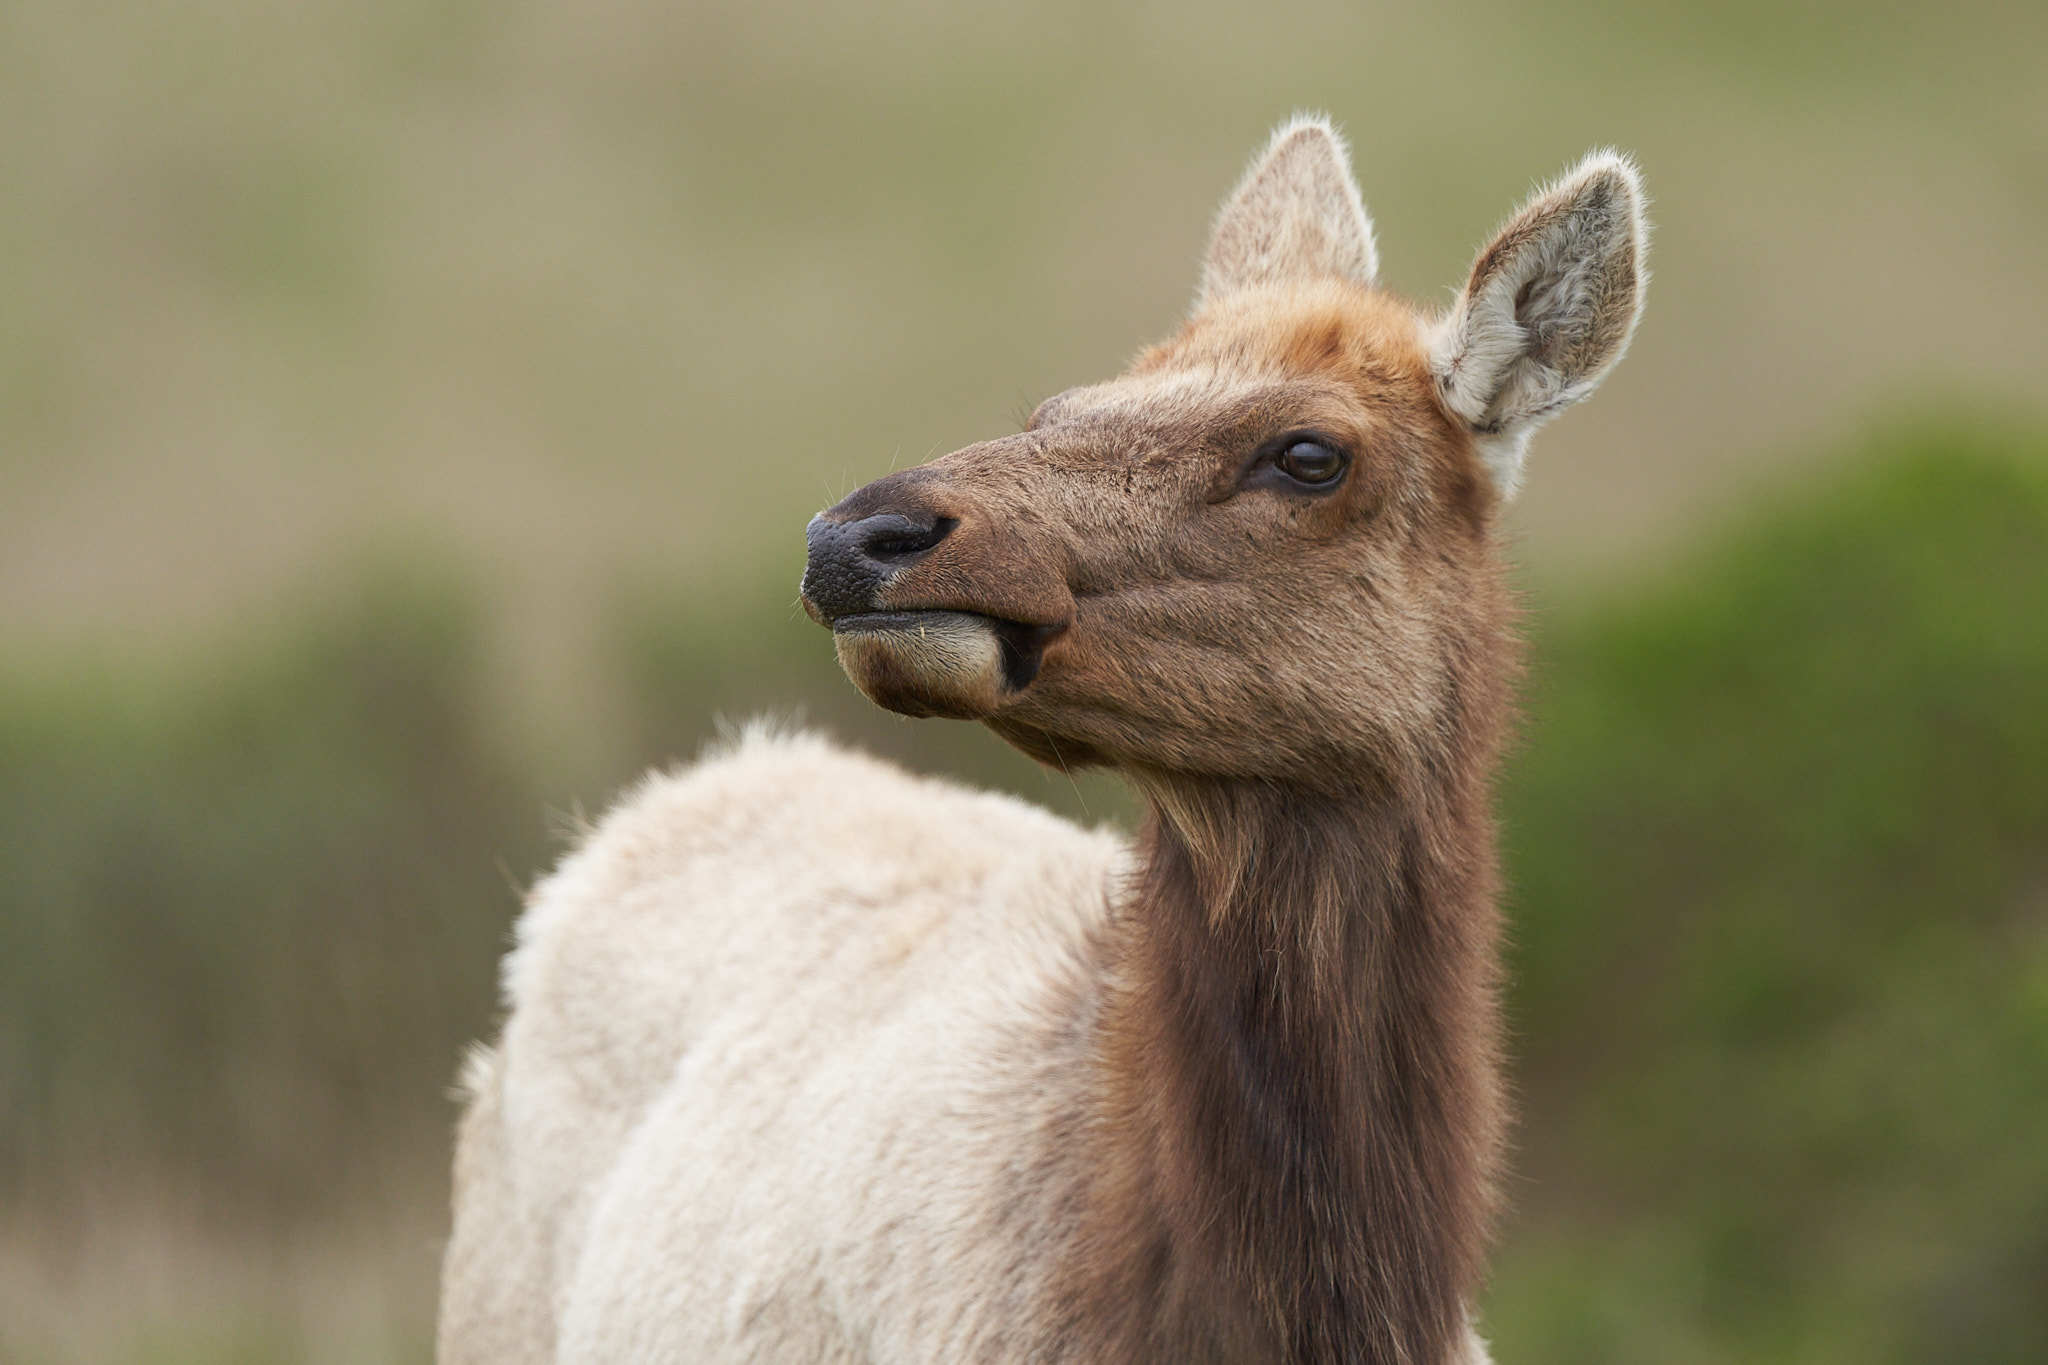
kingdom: Animalia
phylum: Chordata
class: Mammalia
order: Artiodactyla
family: Cervidae
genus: Cervus
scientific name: Cervus elaphus
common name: Red deer
